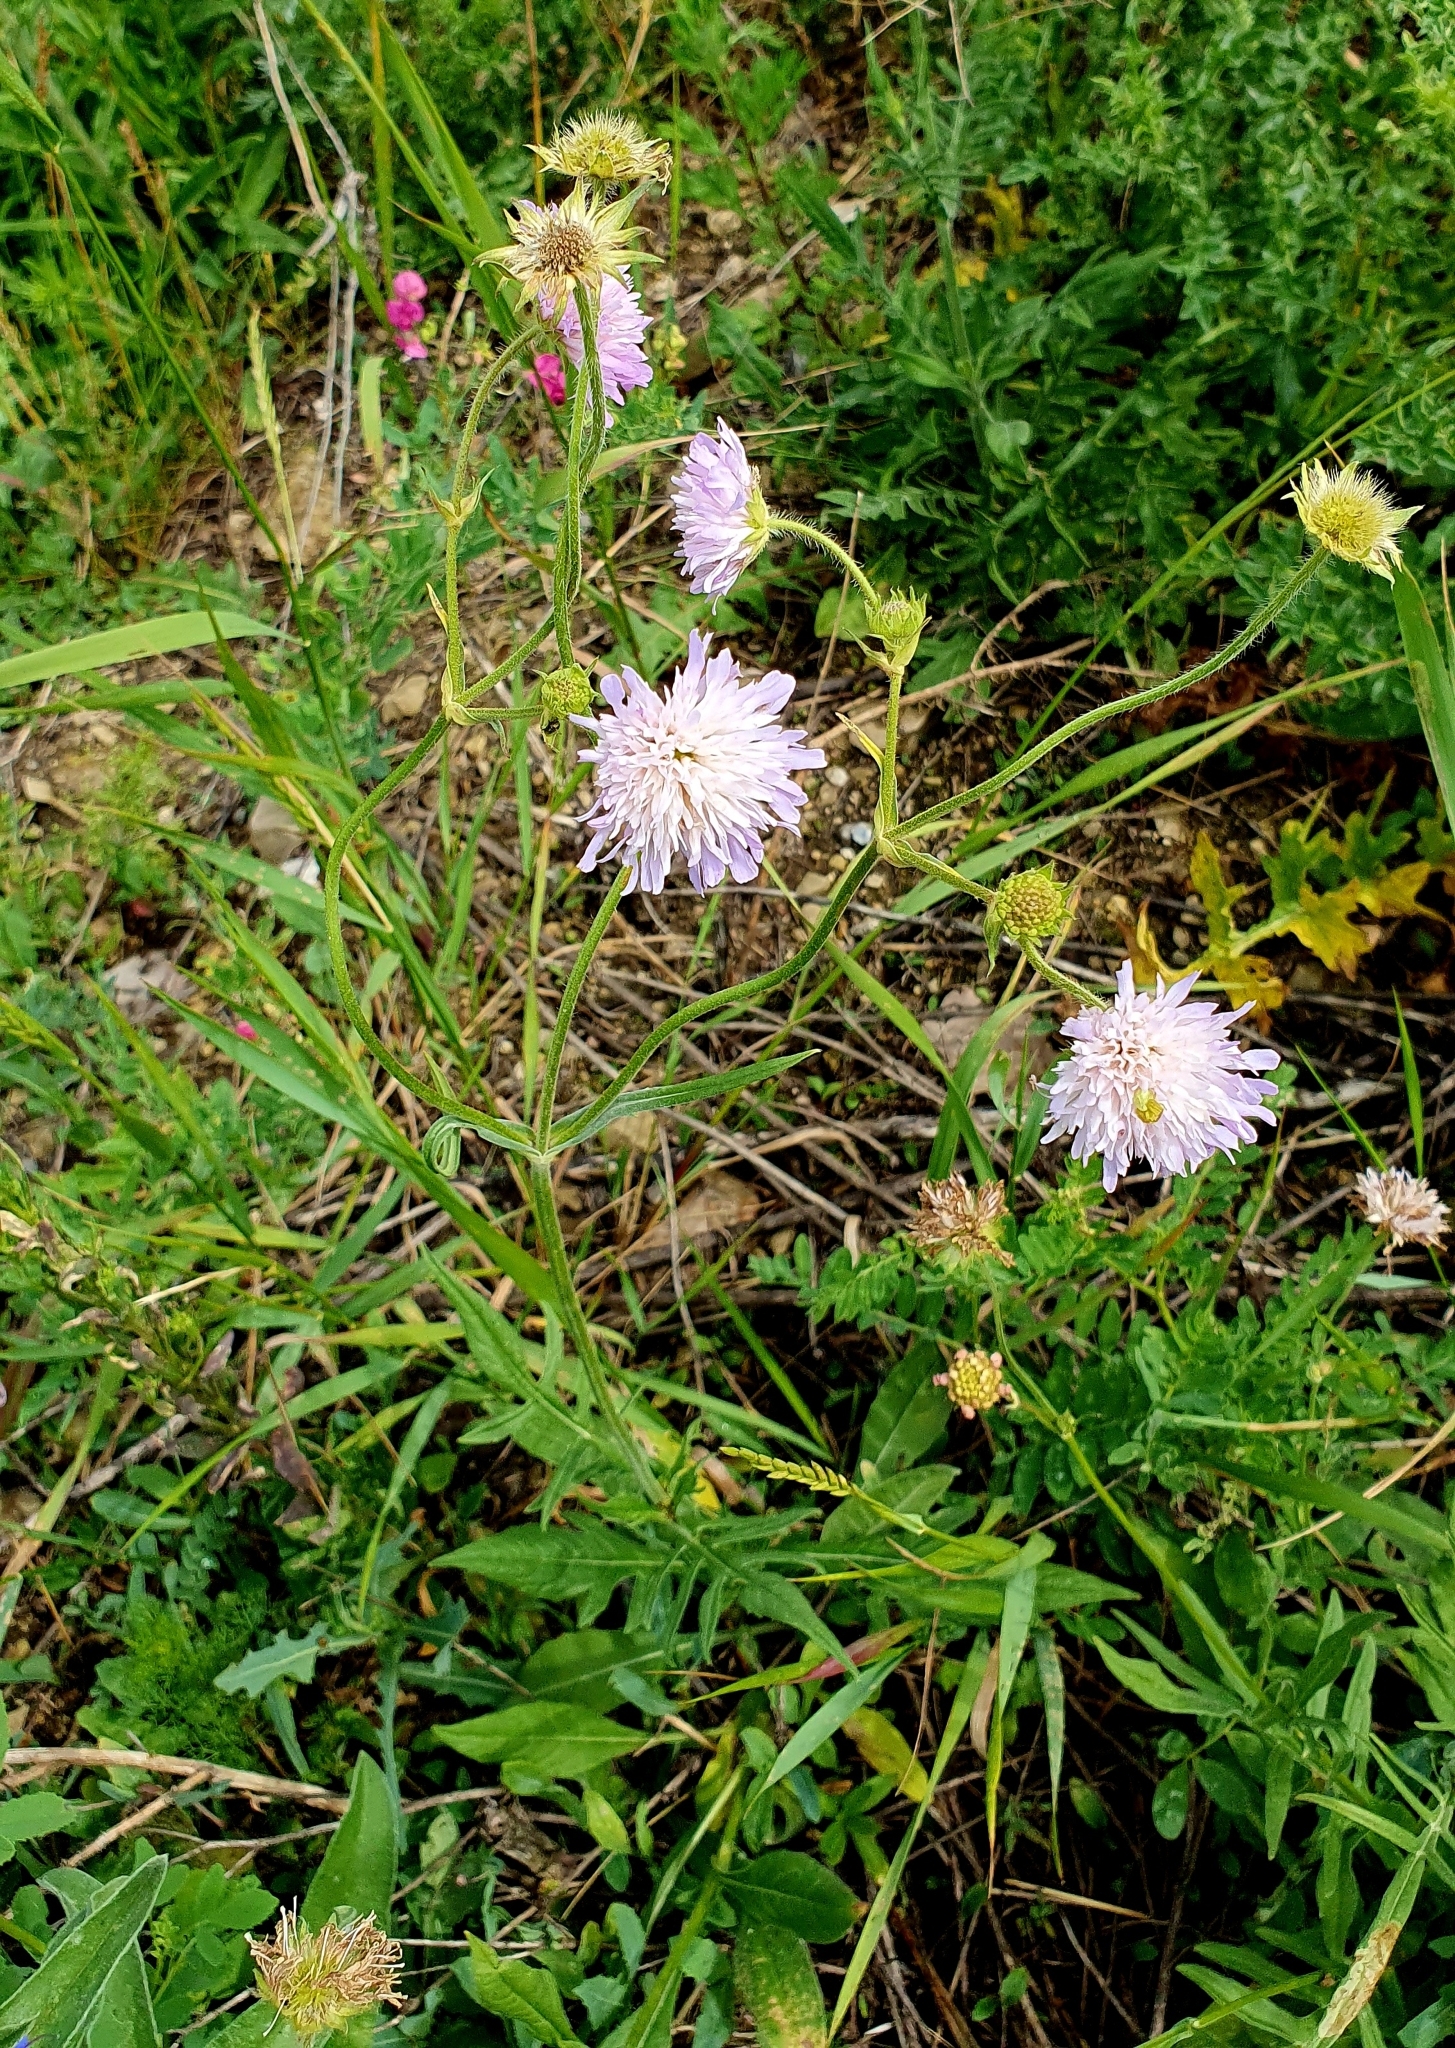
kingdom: Plantae
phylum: Tracheophyta
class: Magnoliopsida
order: Dipsacales
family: Caprifoliaceae
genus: Knautia
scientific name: Knautia arvensis
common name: Field scabiosa
